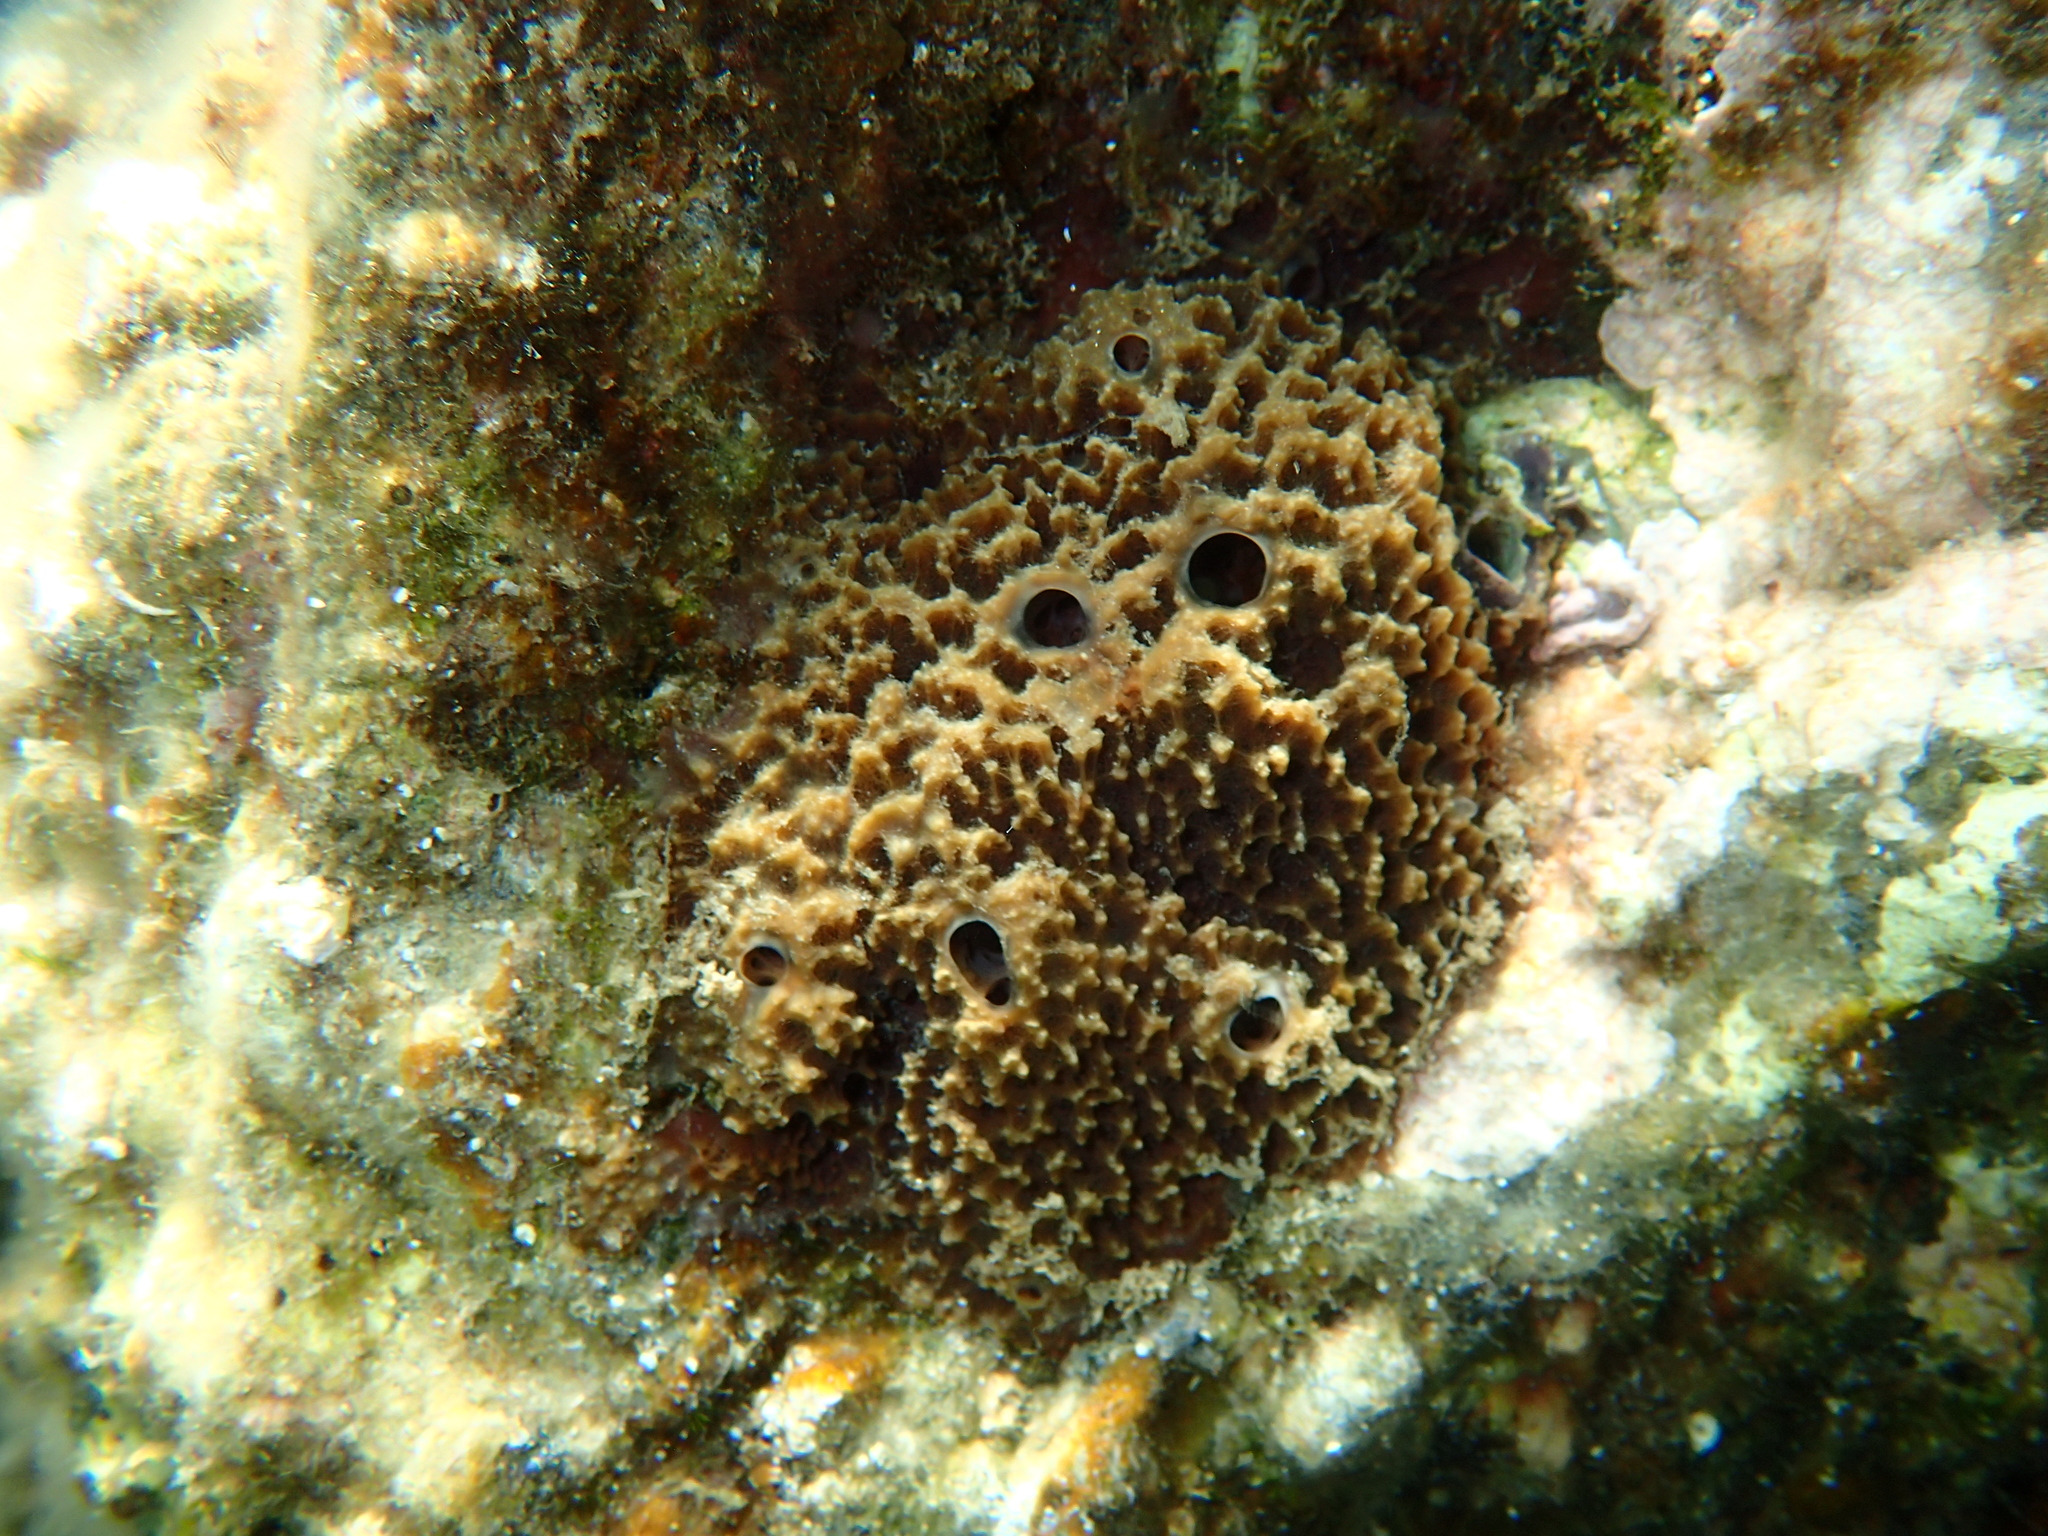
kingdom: Animalia
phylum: Porifera
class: Demospongiae
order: Dictyoceratida
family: Irciniidae
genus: Sarcotragus
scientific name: Sarcotragus fasciculatus
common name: Stinker sponge
